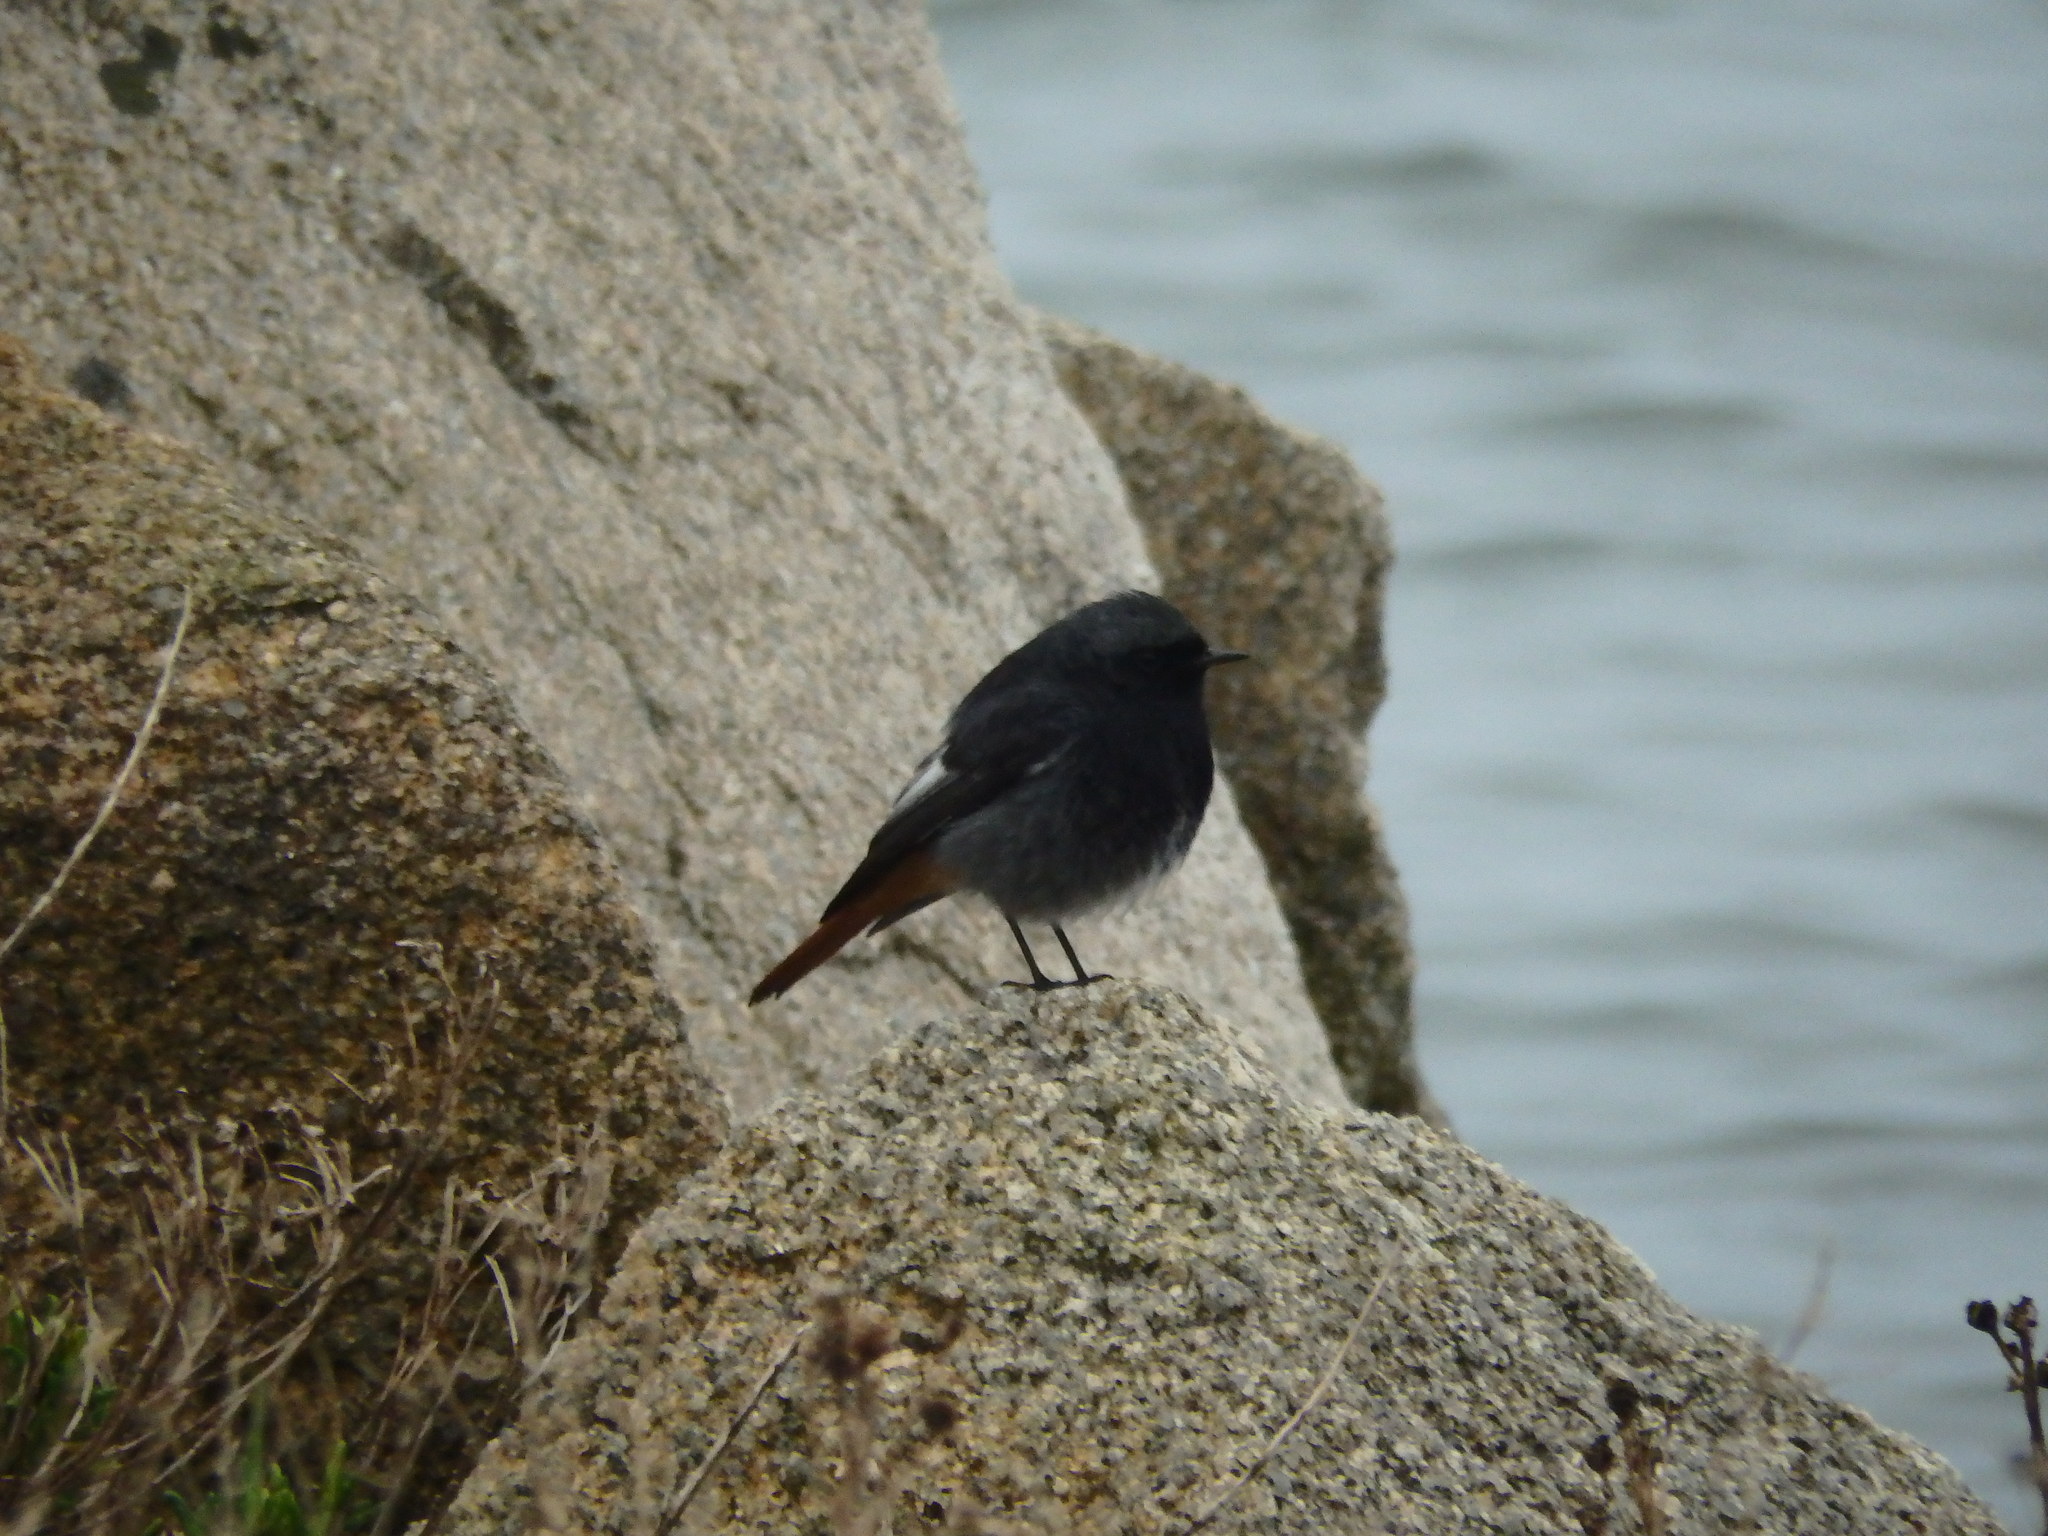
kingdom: Animalia
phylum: Chordata
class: Aves
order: Passeriformes
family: Muscicapidae
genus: Phoenicurus
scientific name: Phoenicurus ochruros
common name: Black redstart
